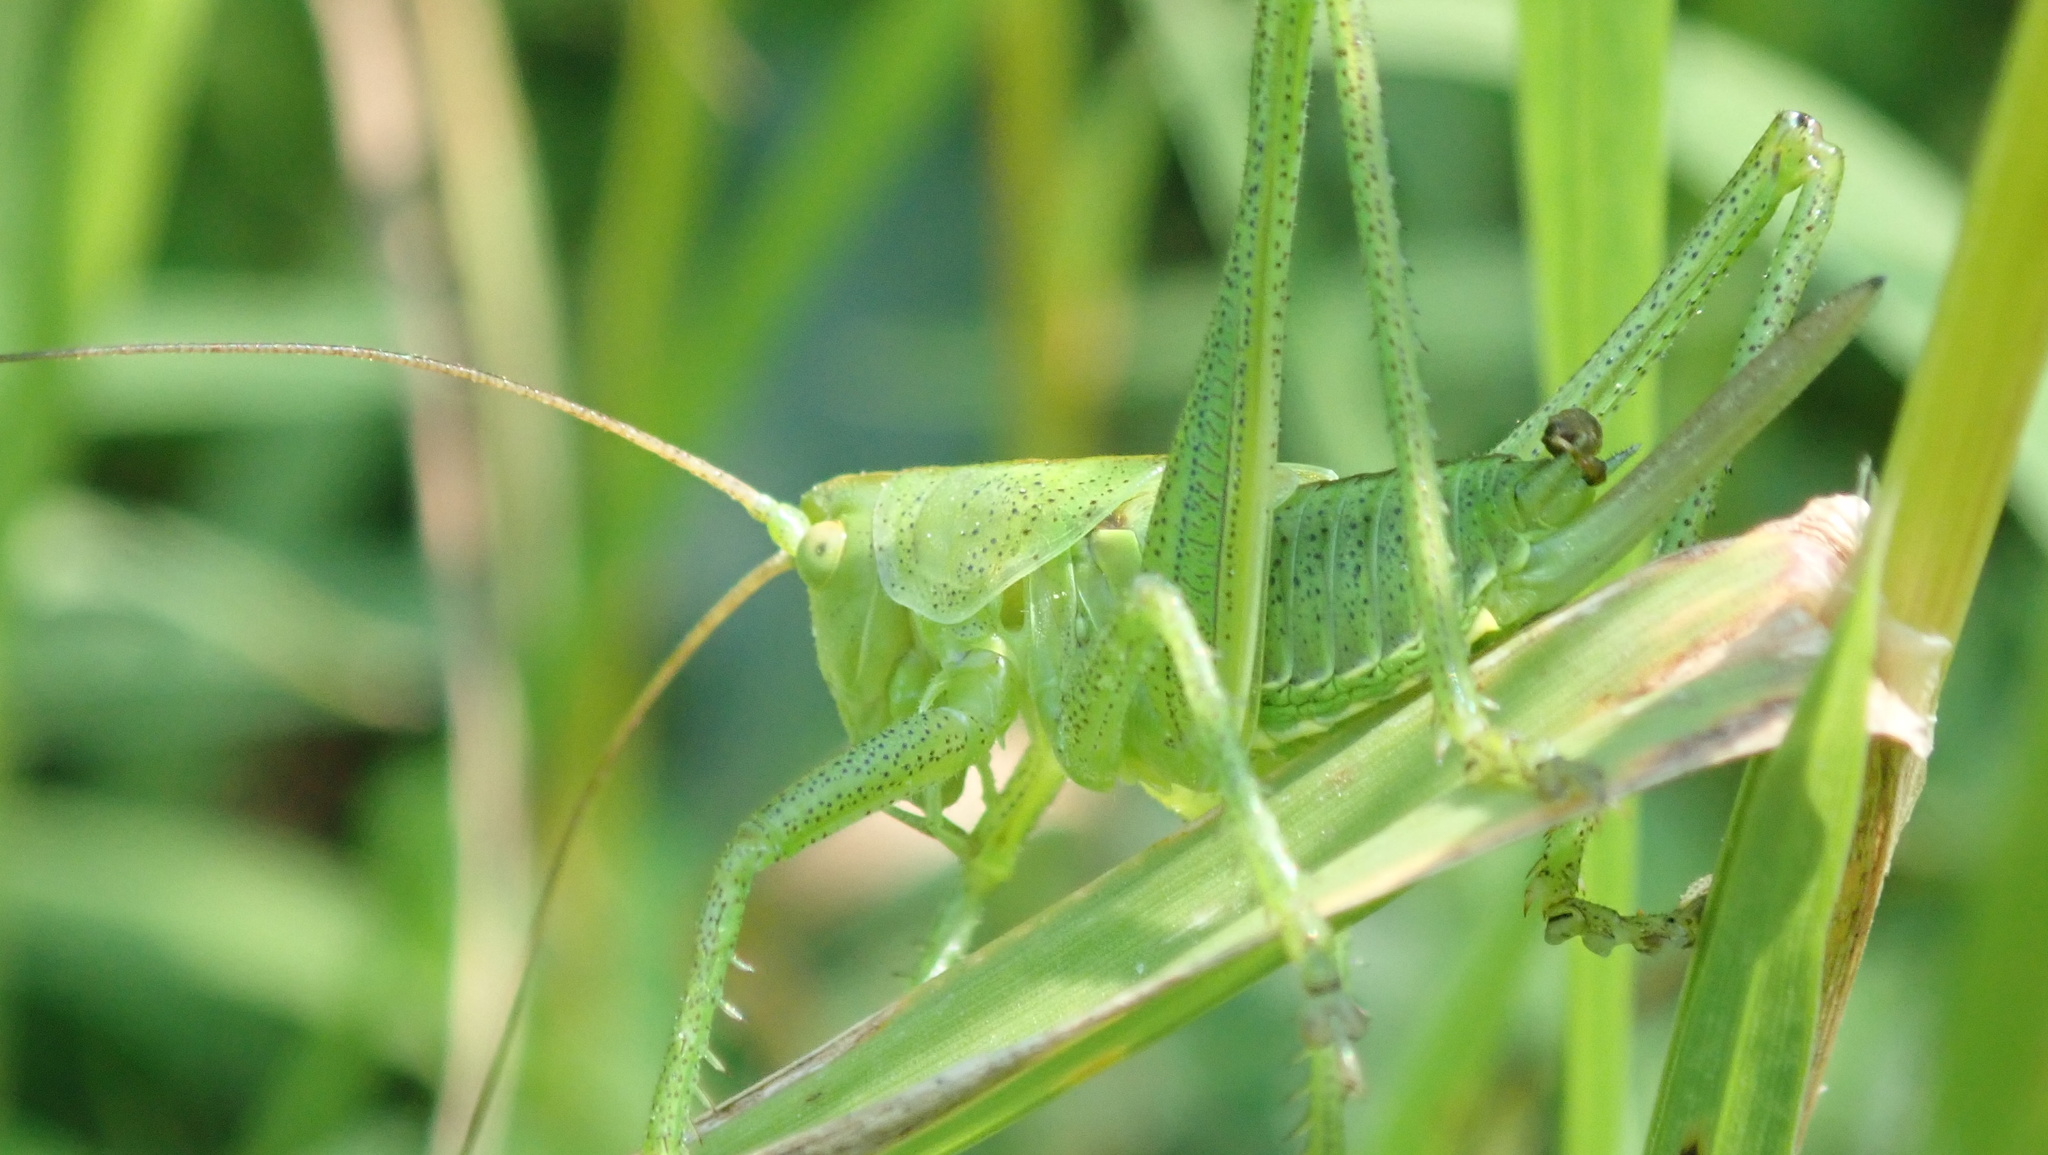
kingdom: Animalia
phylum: Arthropoda
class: Insecta
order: Orthoptera
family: Tettigoniidae
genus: Tettigonia
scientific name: Tettigonia viridissima
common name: Great green bush-cricket
